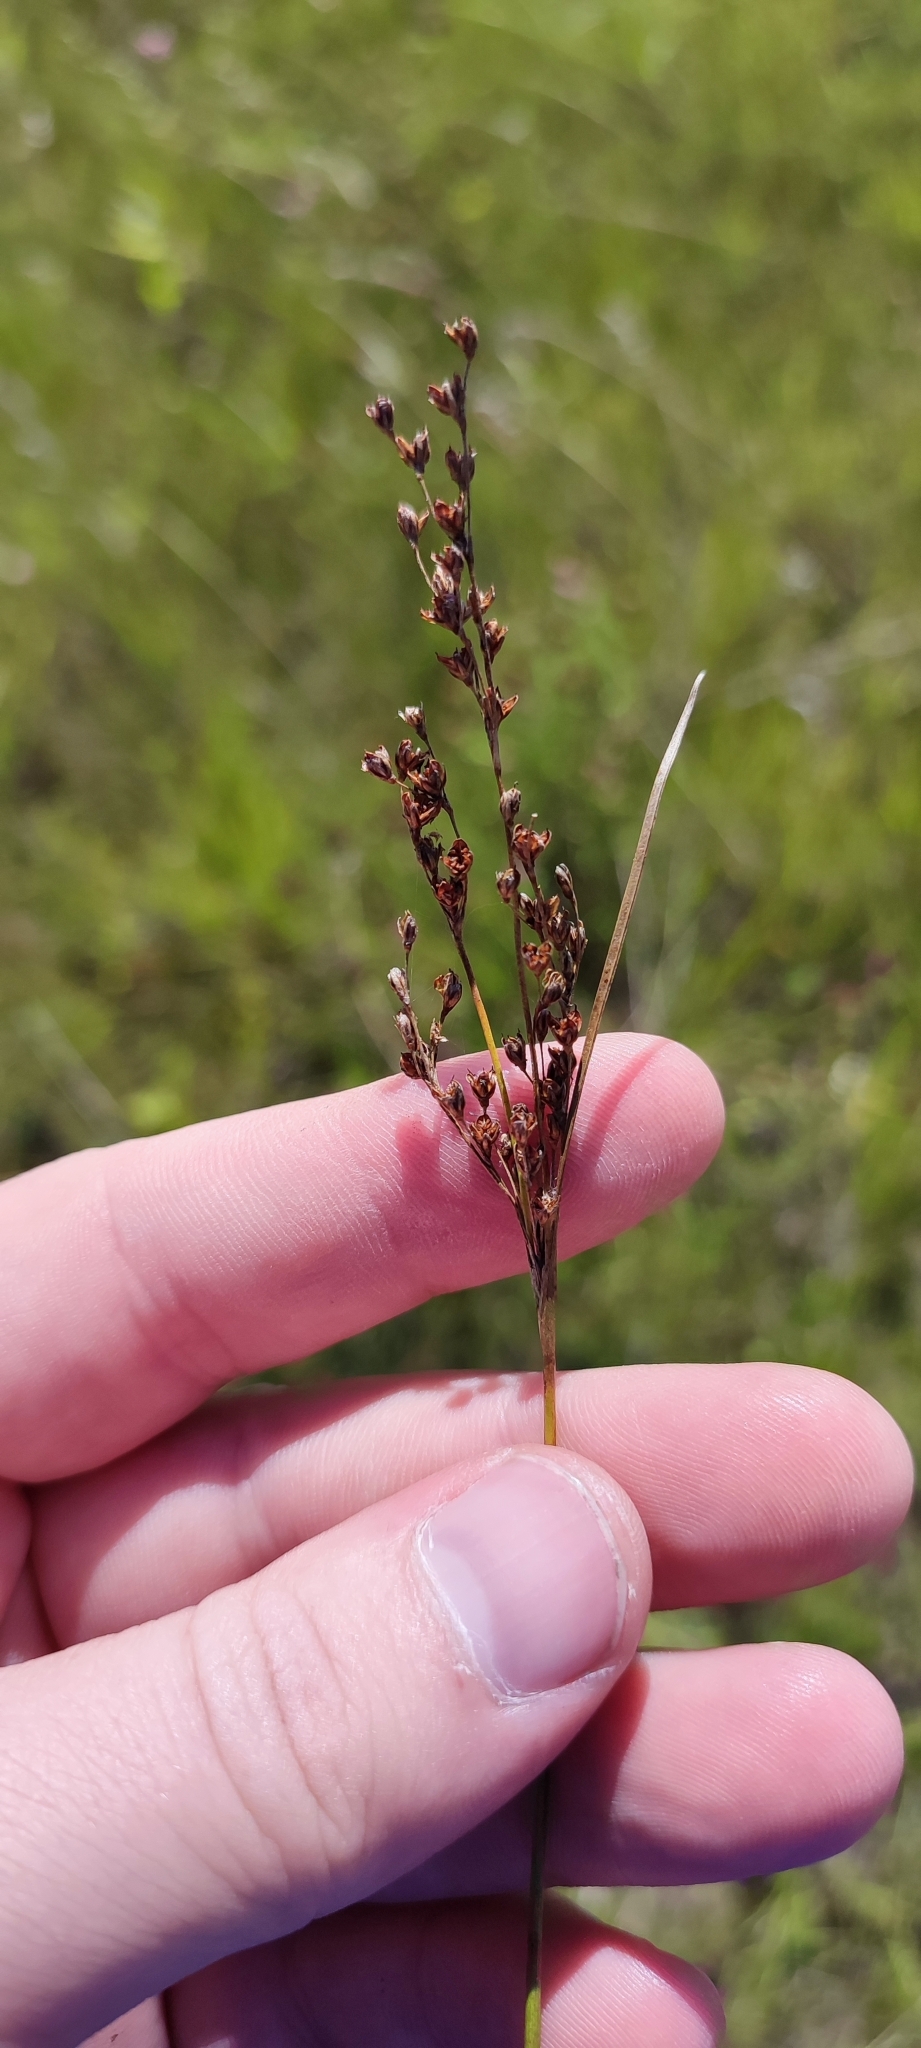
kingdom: Plantae
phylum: Tracheophyta
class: Liliopsida
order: Poales
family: Juncaceae
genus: Juncus
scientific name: Juncus gerardi
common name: Saltmarsh rush
